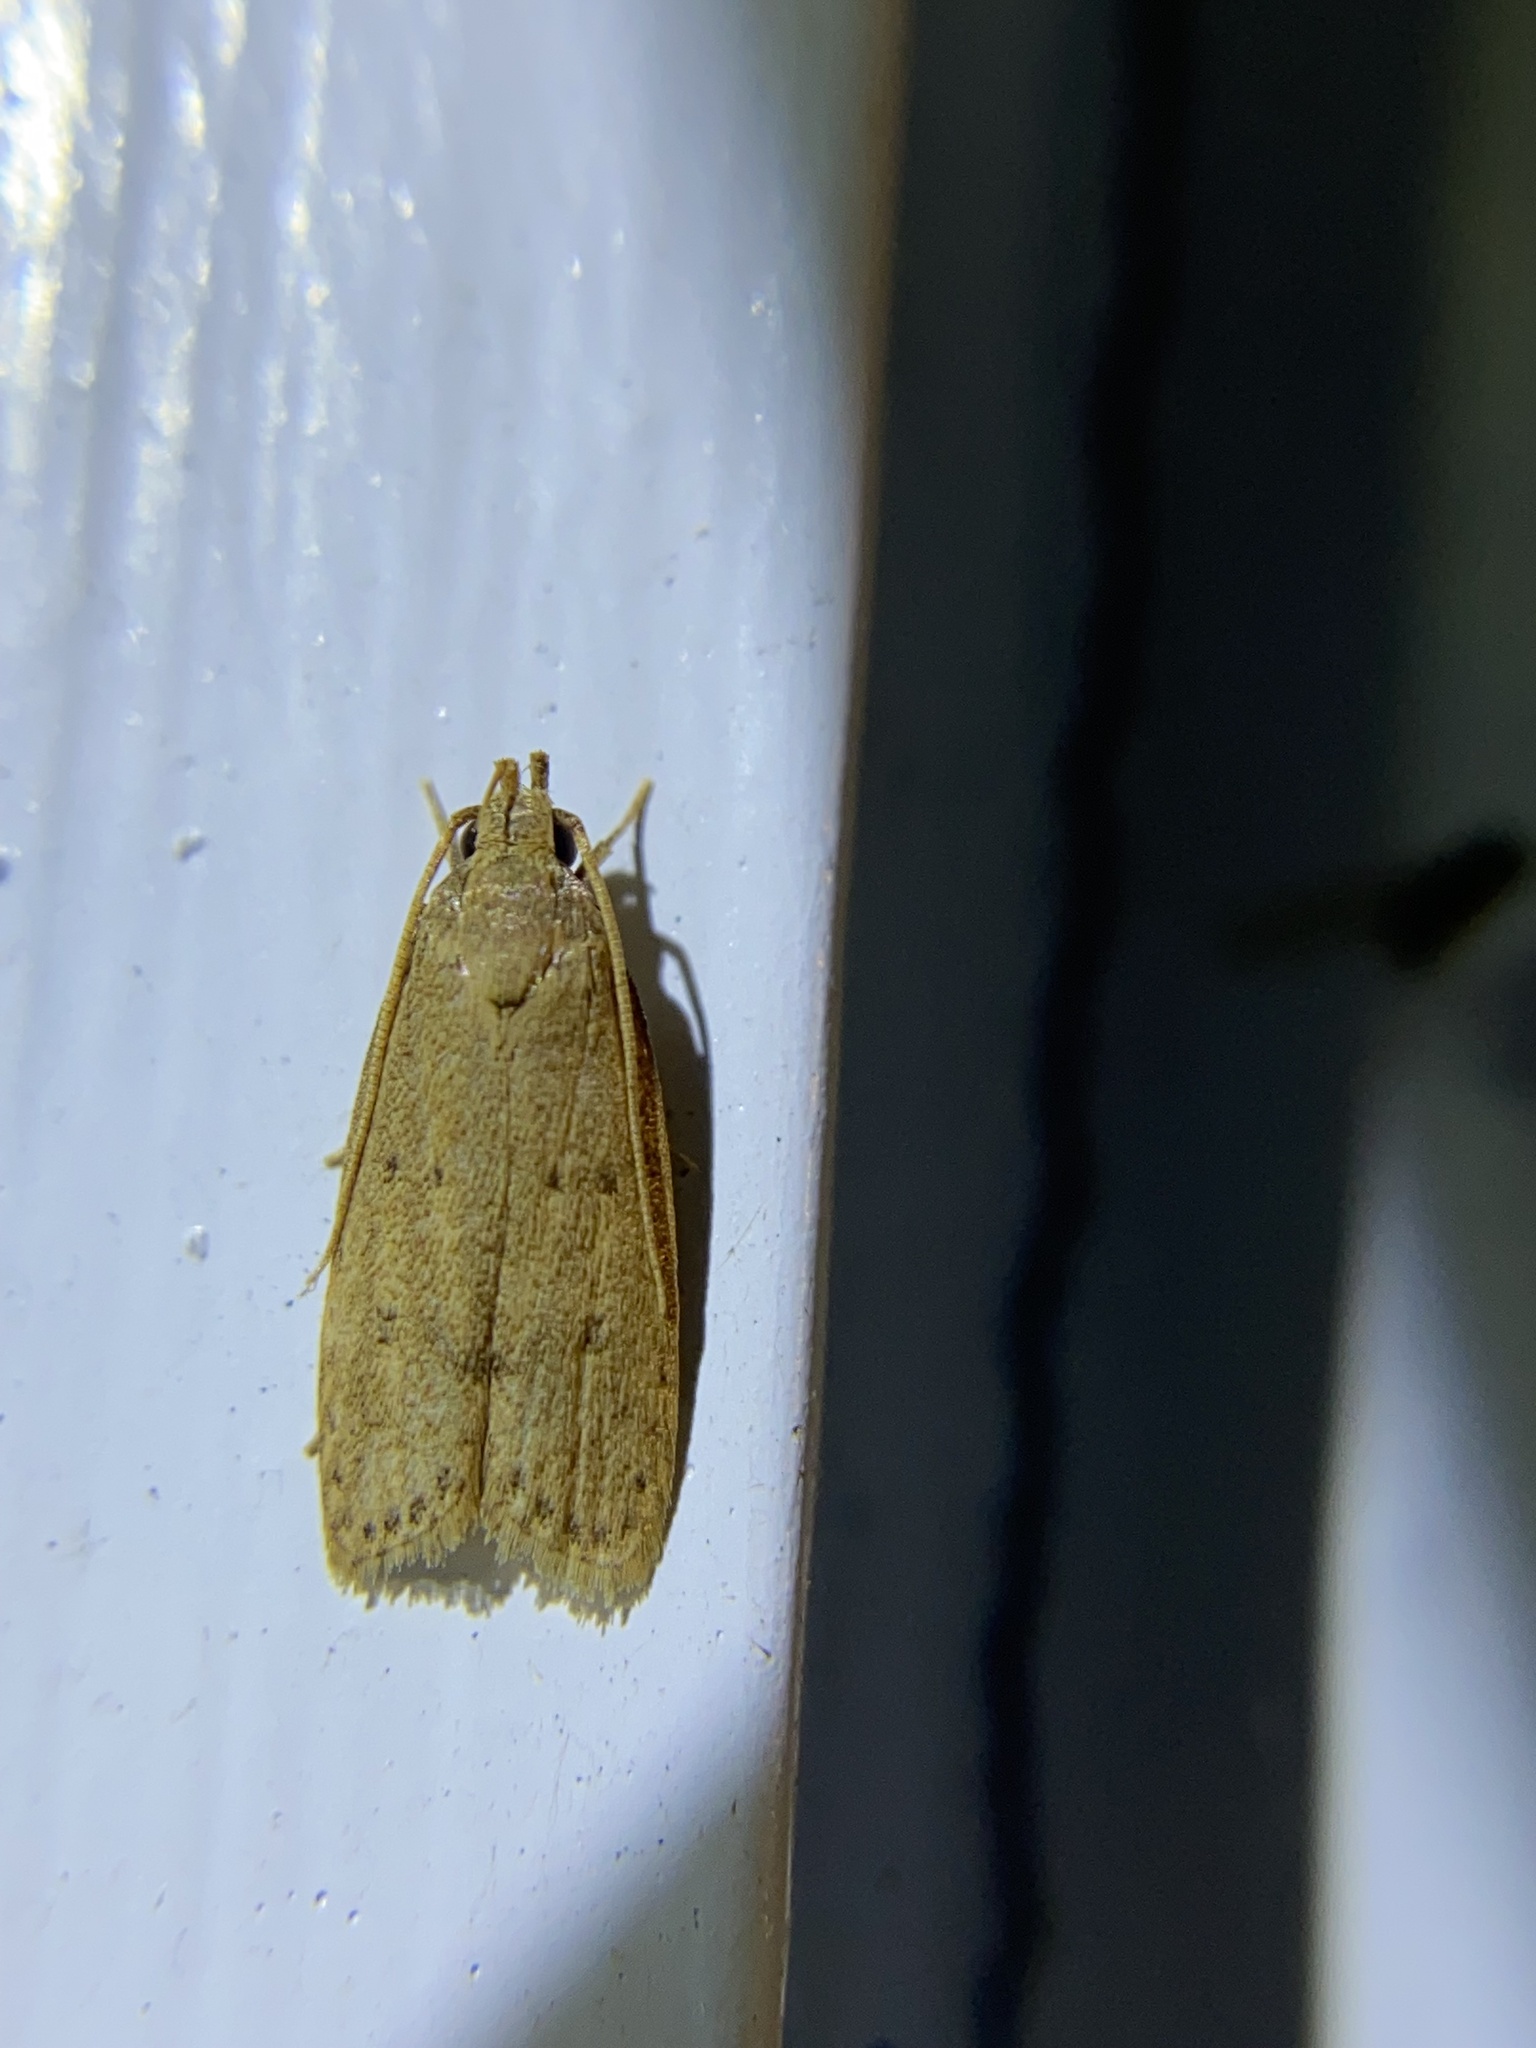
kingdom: Animalia
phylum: Arthropoda
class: Insecta
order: Lepidoptera
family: Autostichidae
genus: Autosticha
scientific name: Autosticha kyotensis
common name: Kyoto moth
